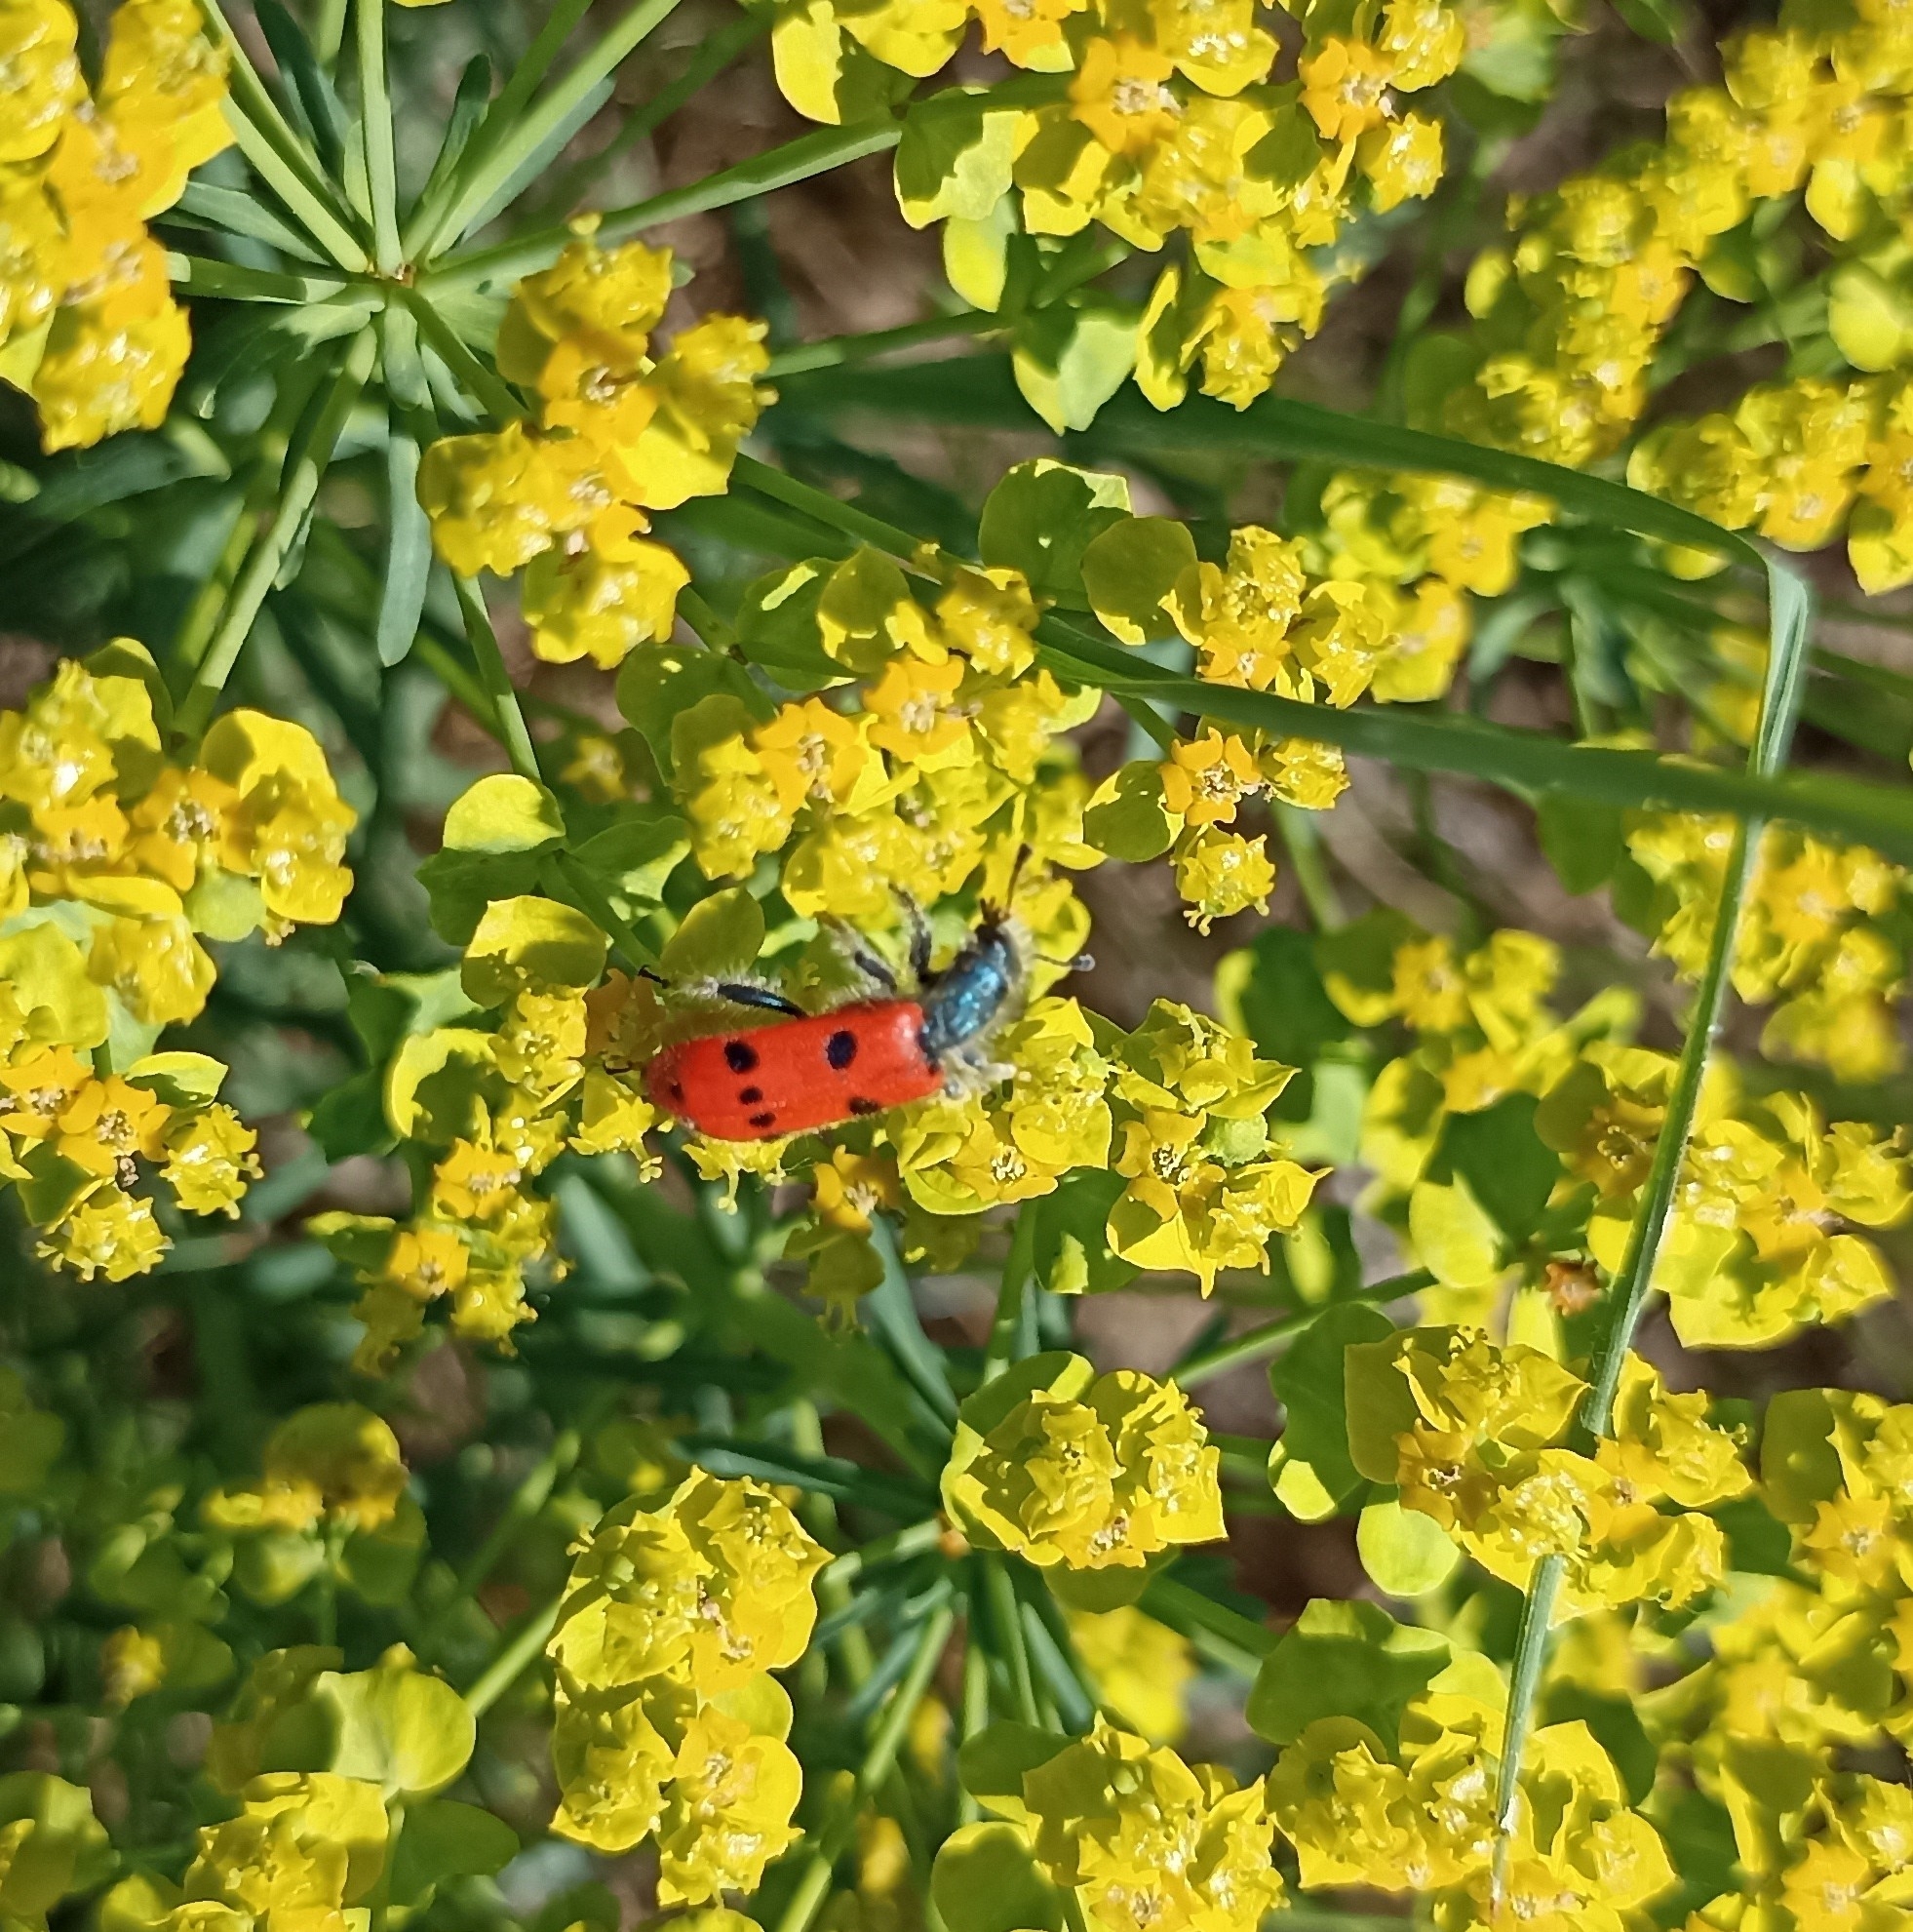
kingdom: Animalia
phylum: Arthropoda
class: Insecta
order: Coleoptera
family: Cleridae
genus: Trichodes
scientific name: Trichodes octopunctatus
